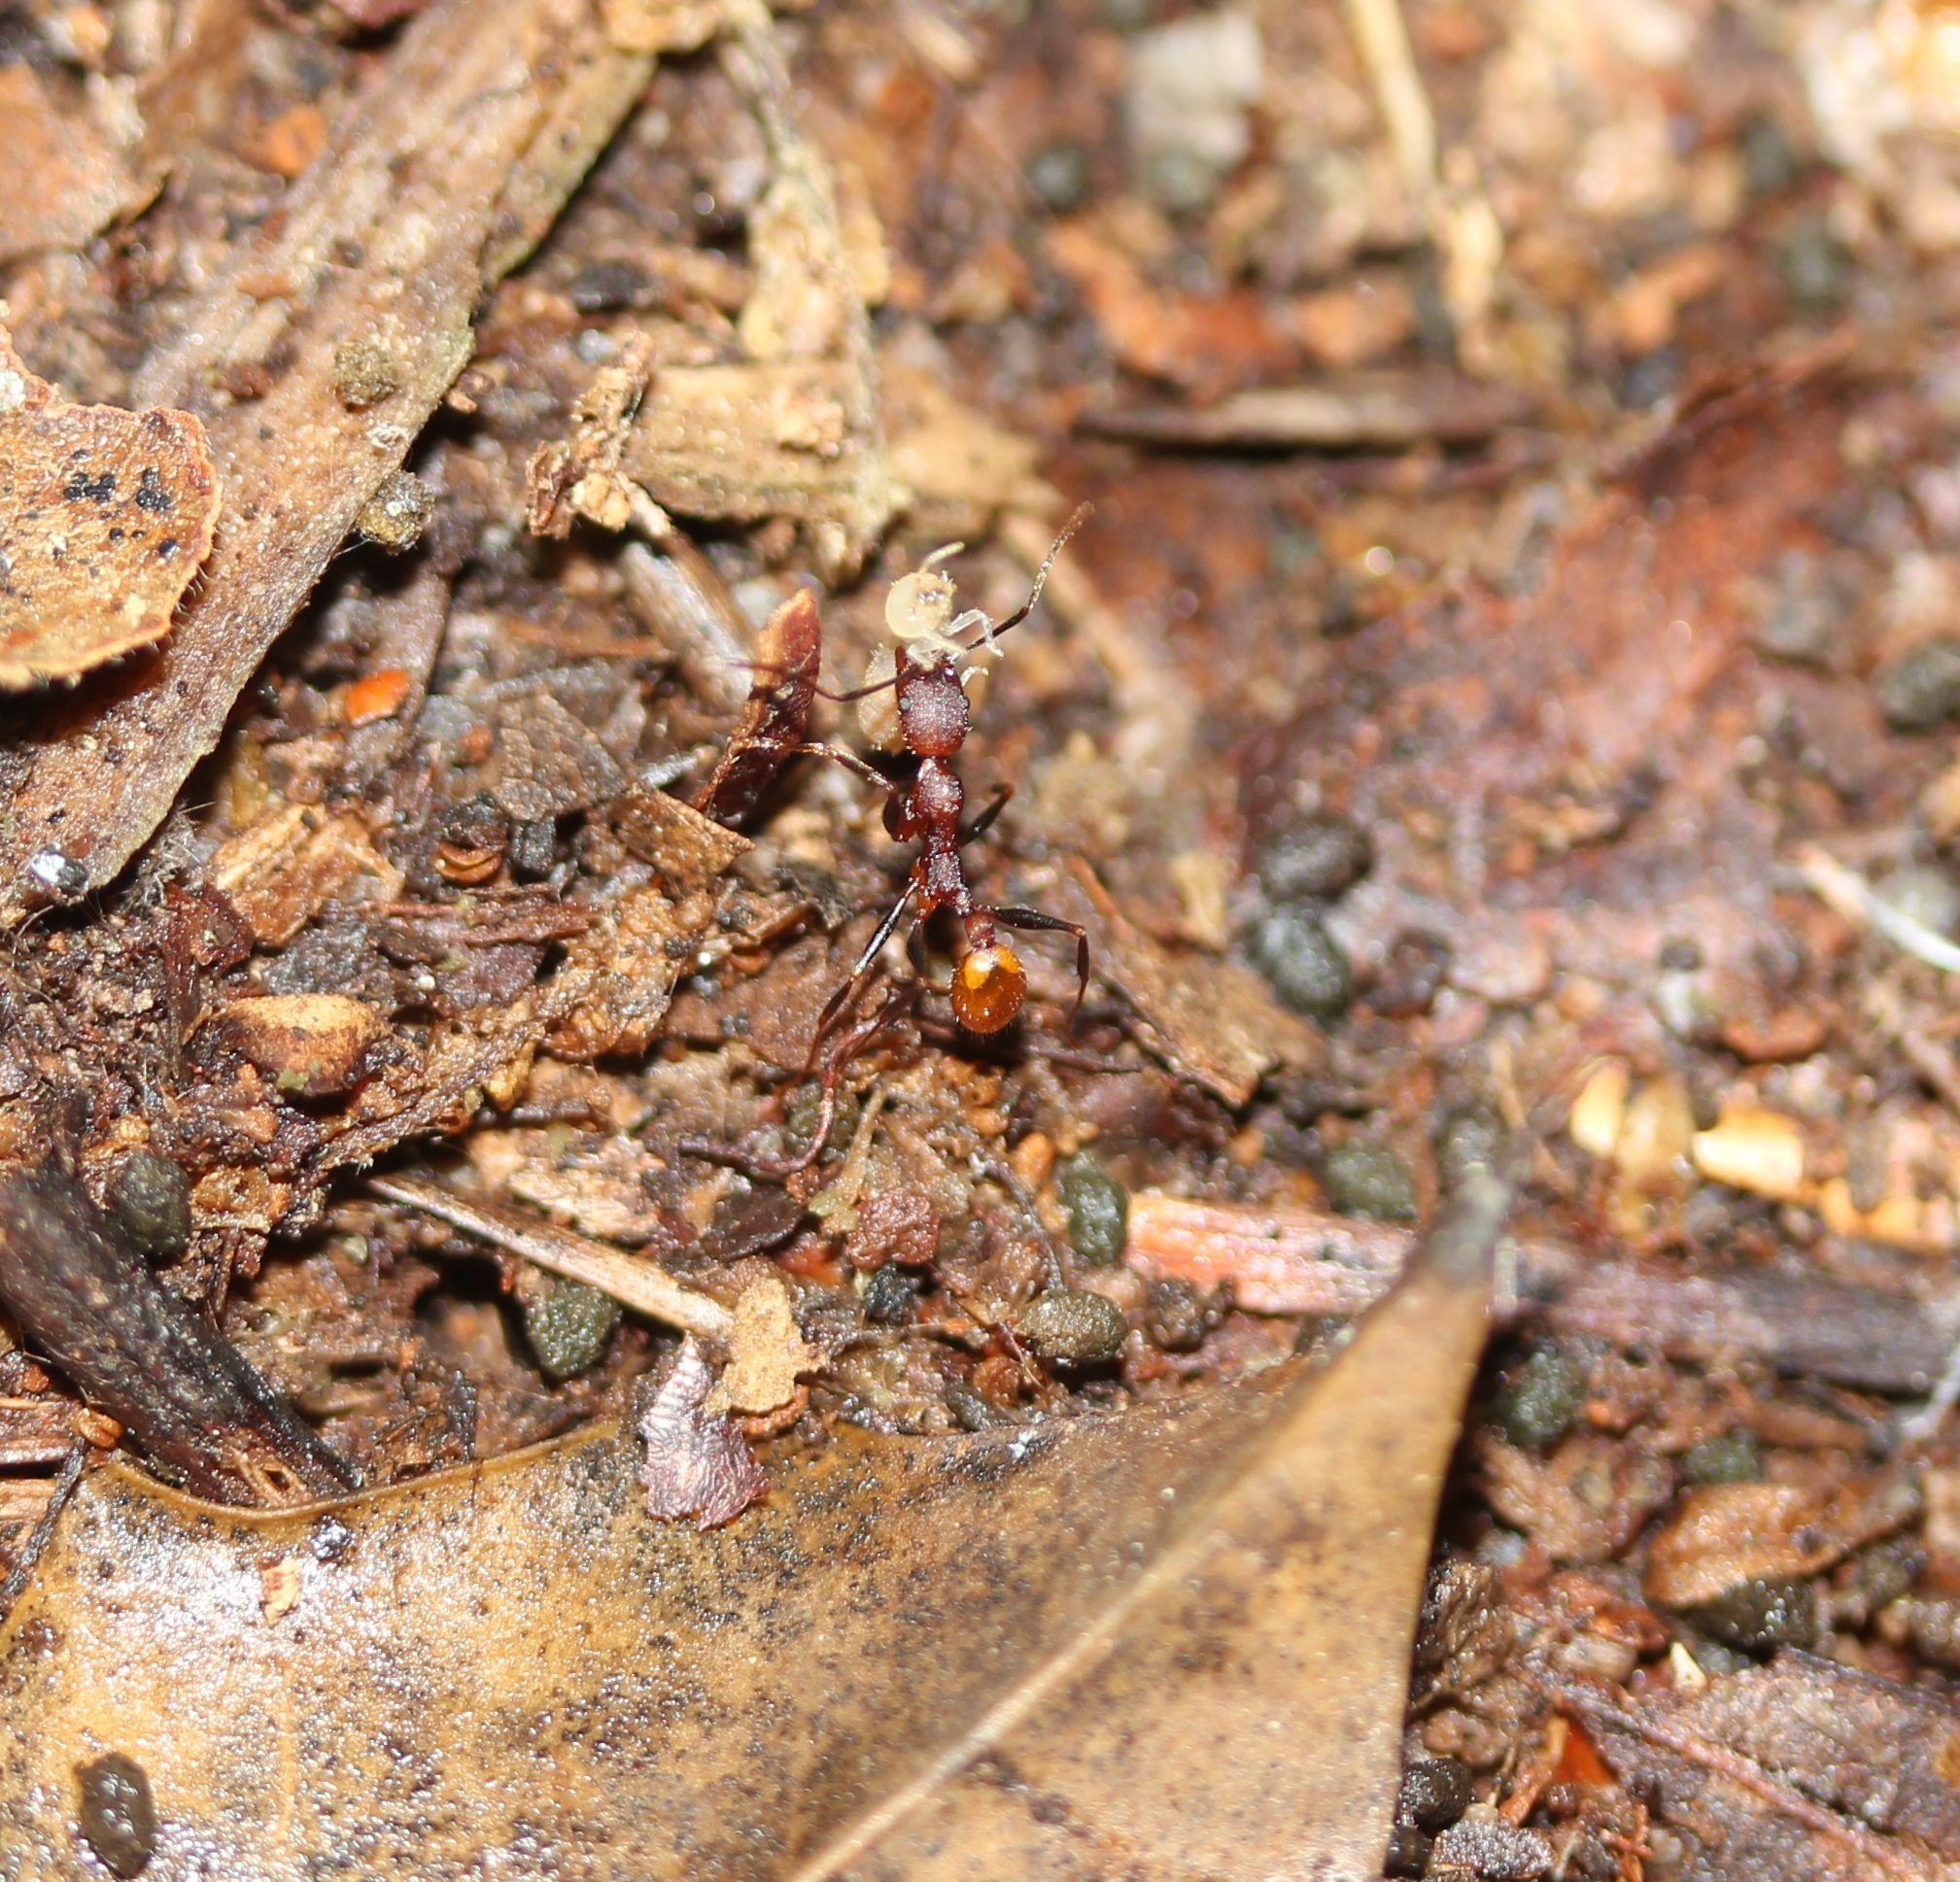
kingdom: Animalia
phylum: Arthropoda
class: Insecta
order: Hymenoptera
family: Formicidae
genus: Aphaenogaster
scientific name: Aphaenogaster lamellidens
